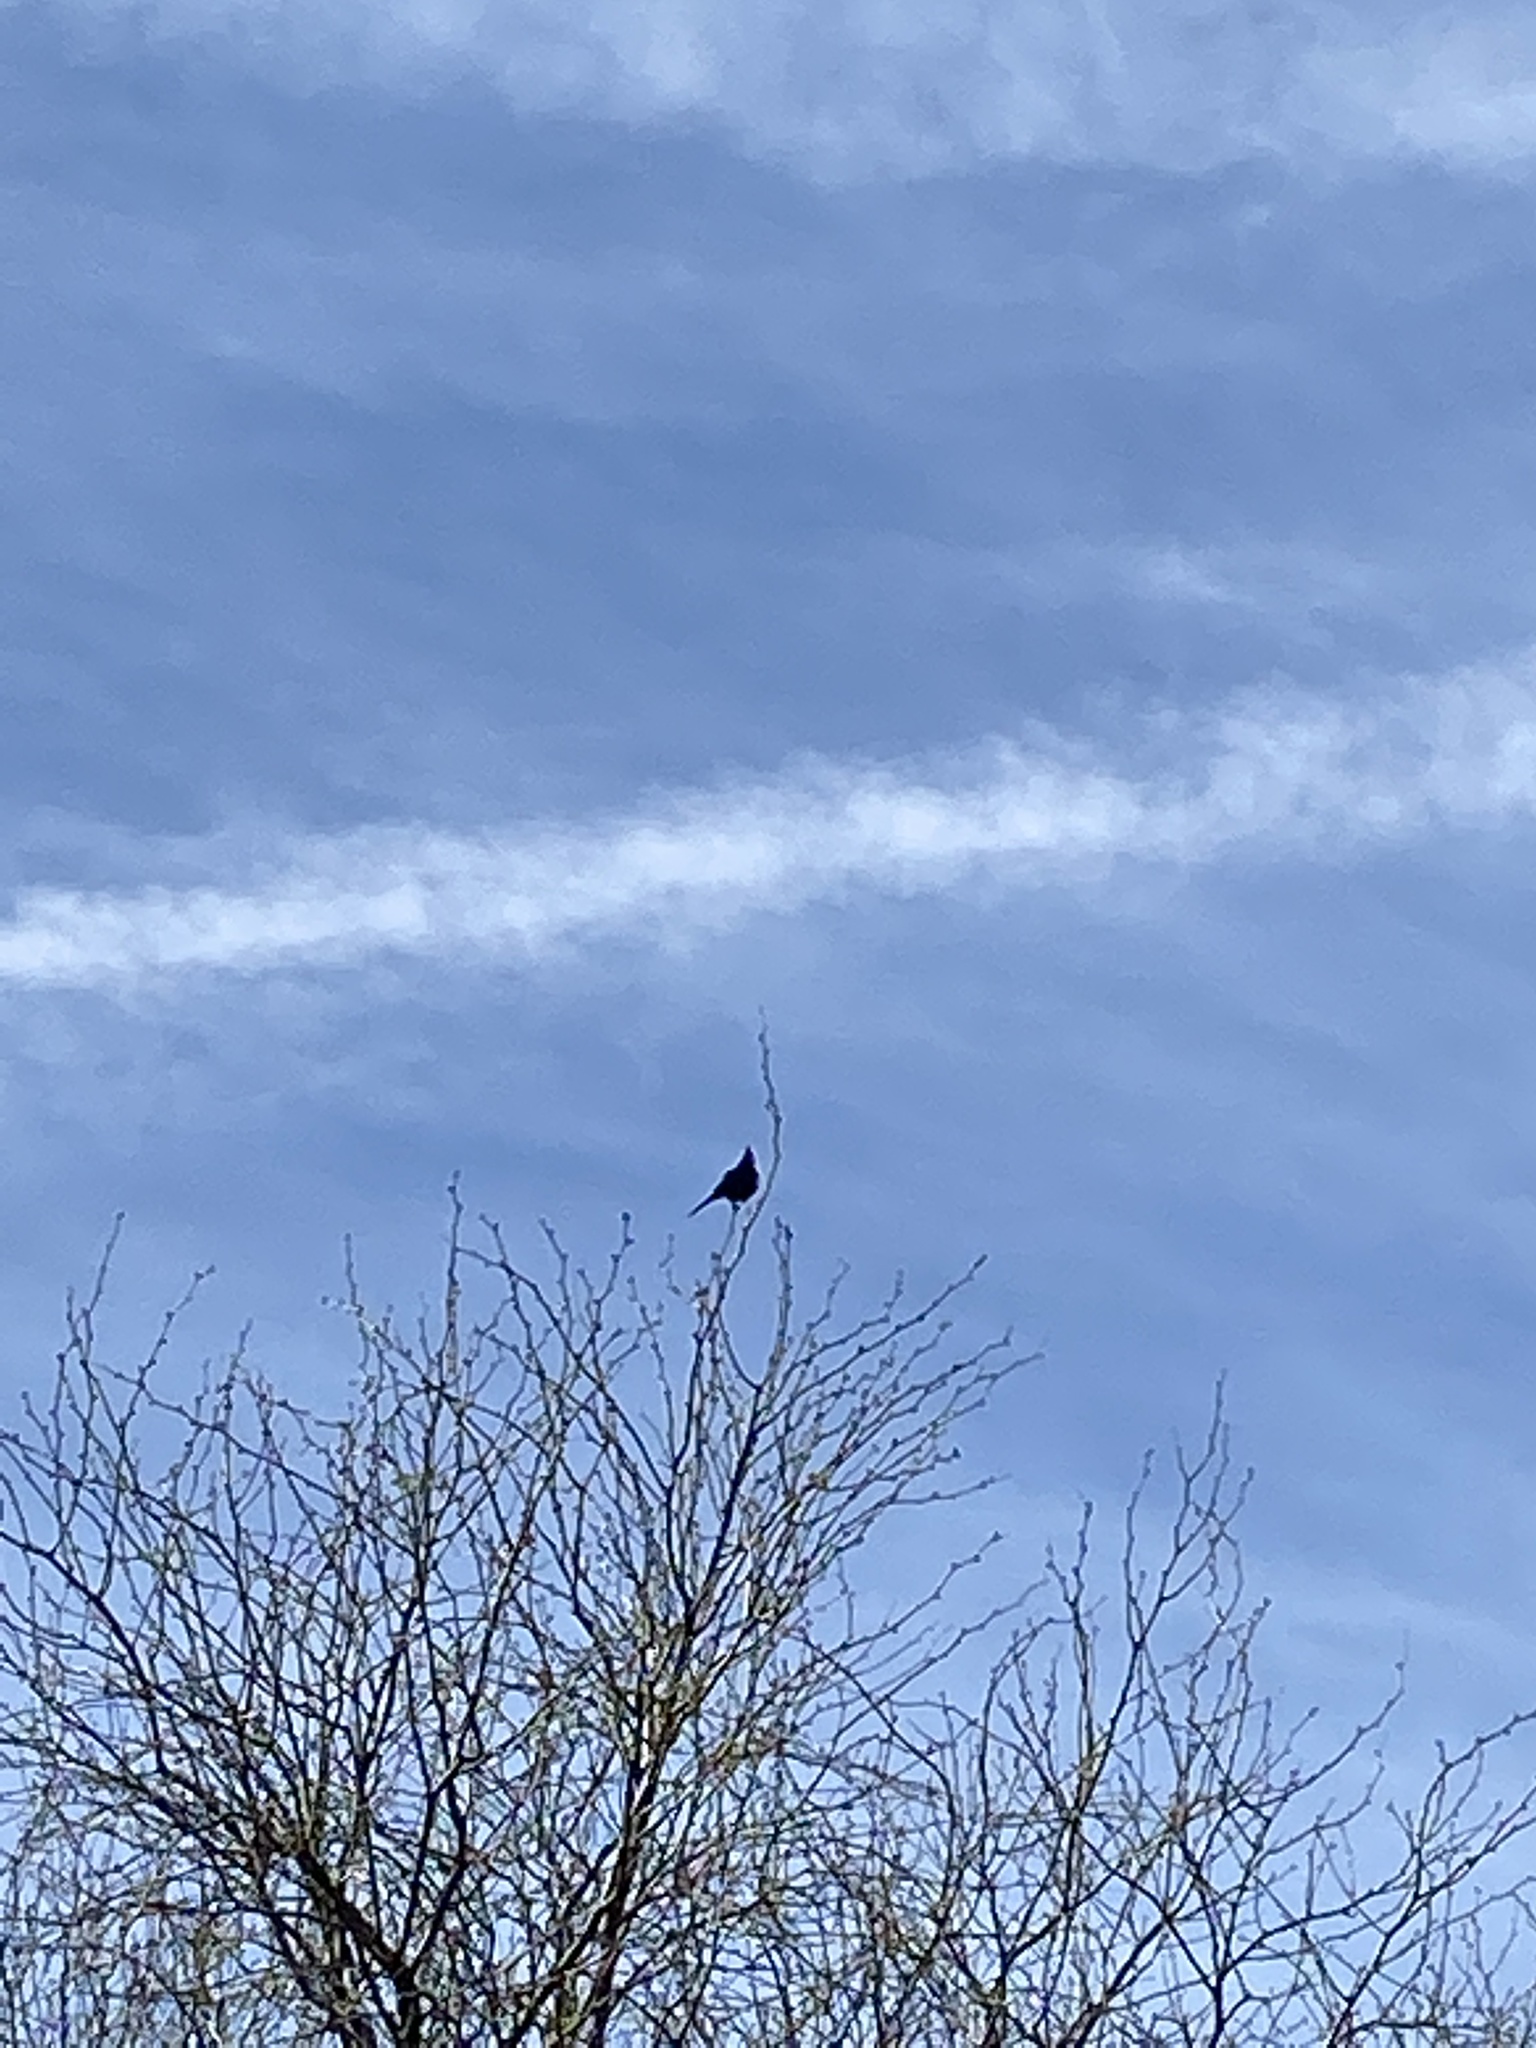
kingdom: Animalia
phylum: Chordata
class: Aves
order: Passeriformes
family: Ptilogonatidae
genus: Phainopepla
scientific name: Phainopepla nitens
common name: Phainopepla
